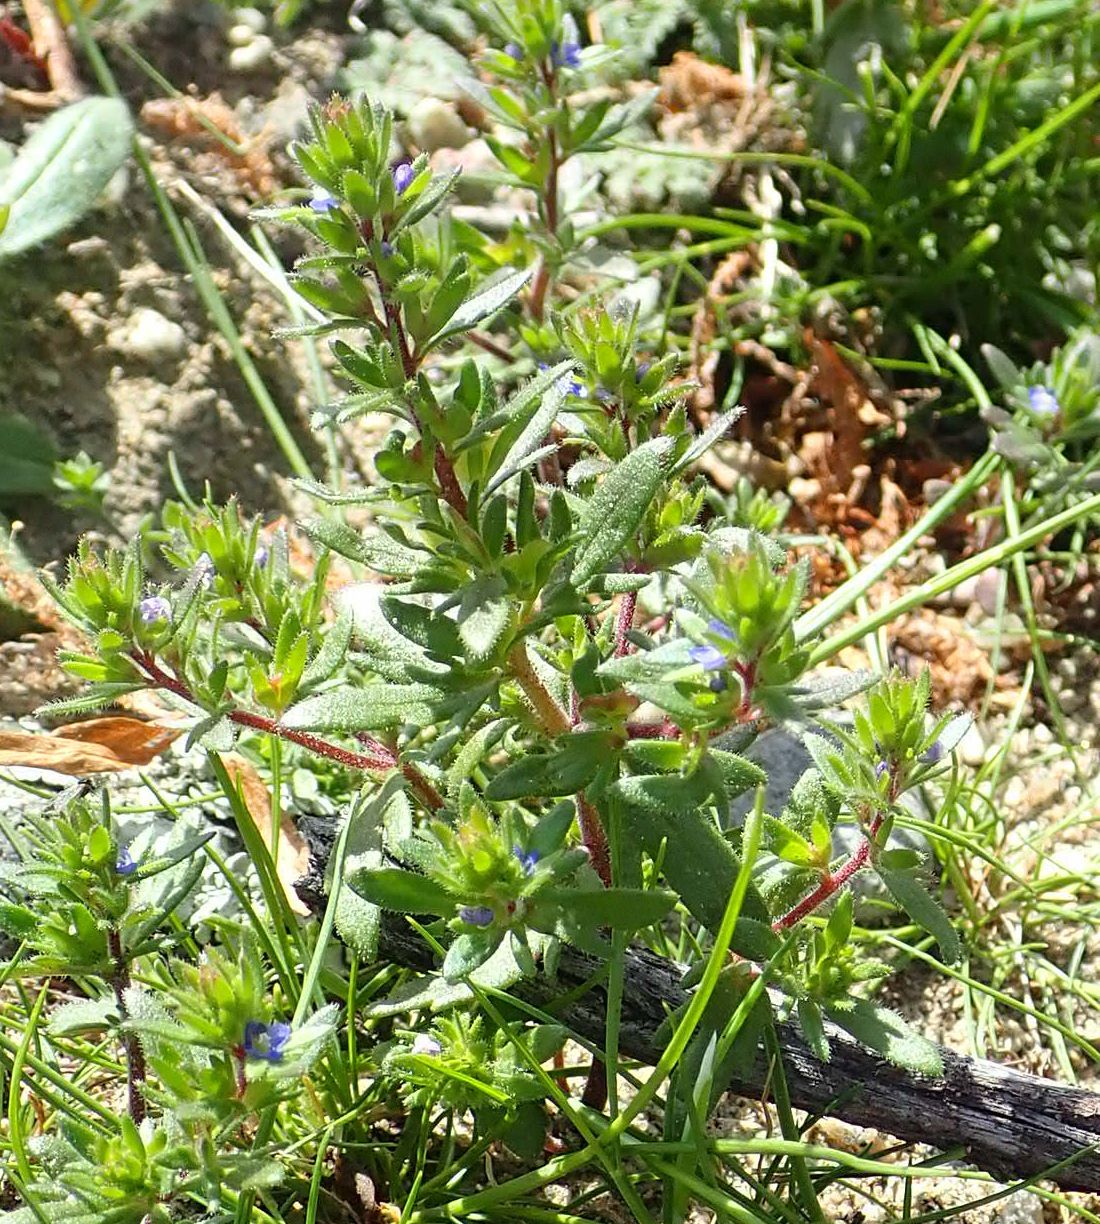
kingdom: Plantae
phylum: Tracheophyta
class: Magnoliopsida
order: Lamiales
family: Plantaginaceae
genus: Veronica
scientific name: Veronica verna
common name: Spring speedwell
